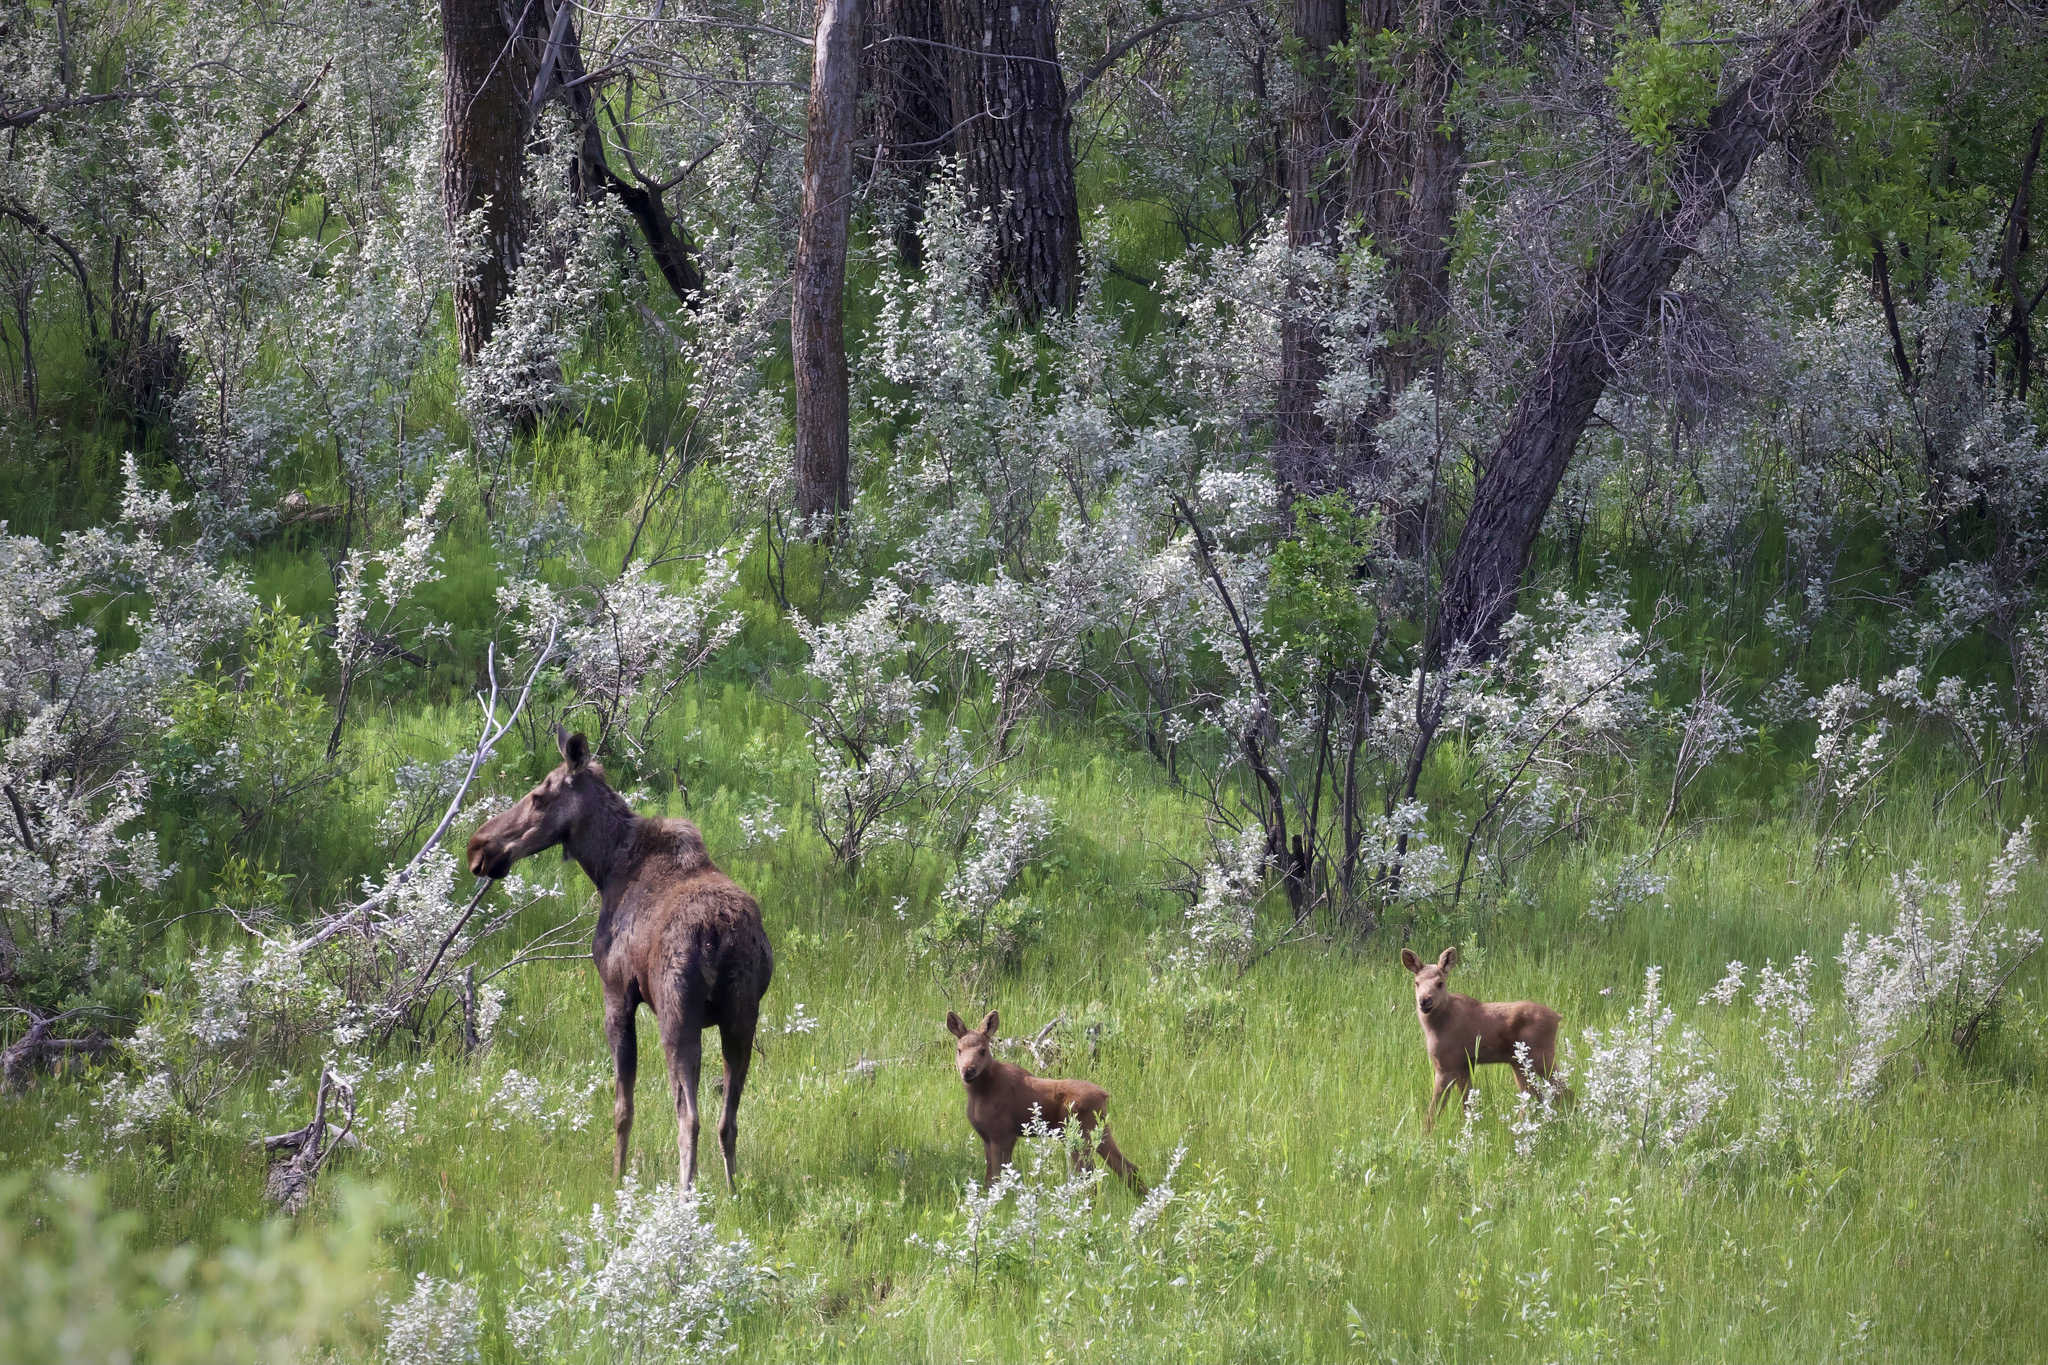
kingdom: Animalia
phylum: Chordata
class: Mammalia
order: Artiodactyla
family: Cervidae
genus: Alces
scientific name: Alces alces
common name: Moose
